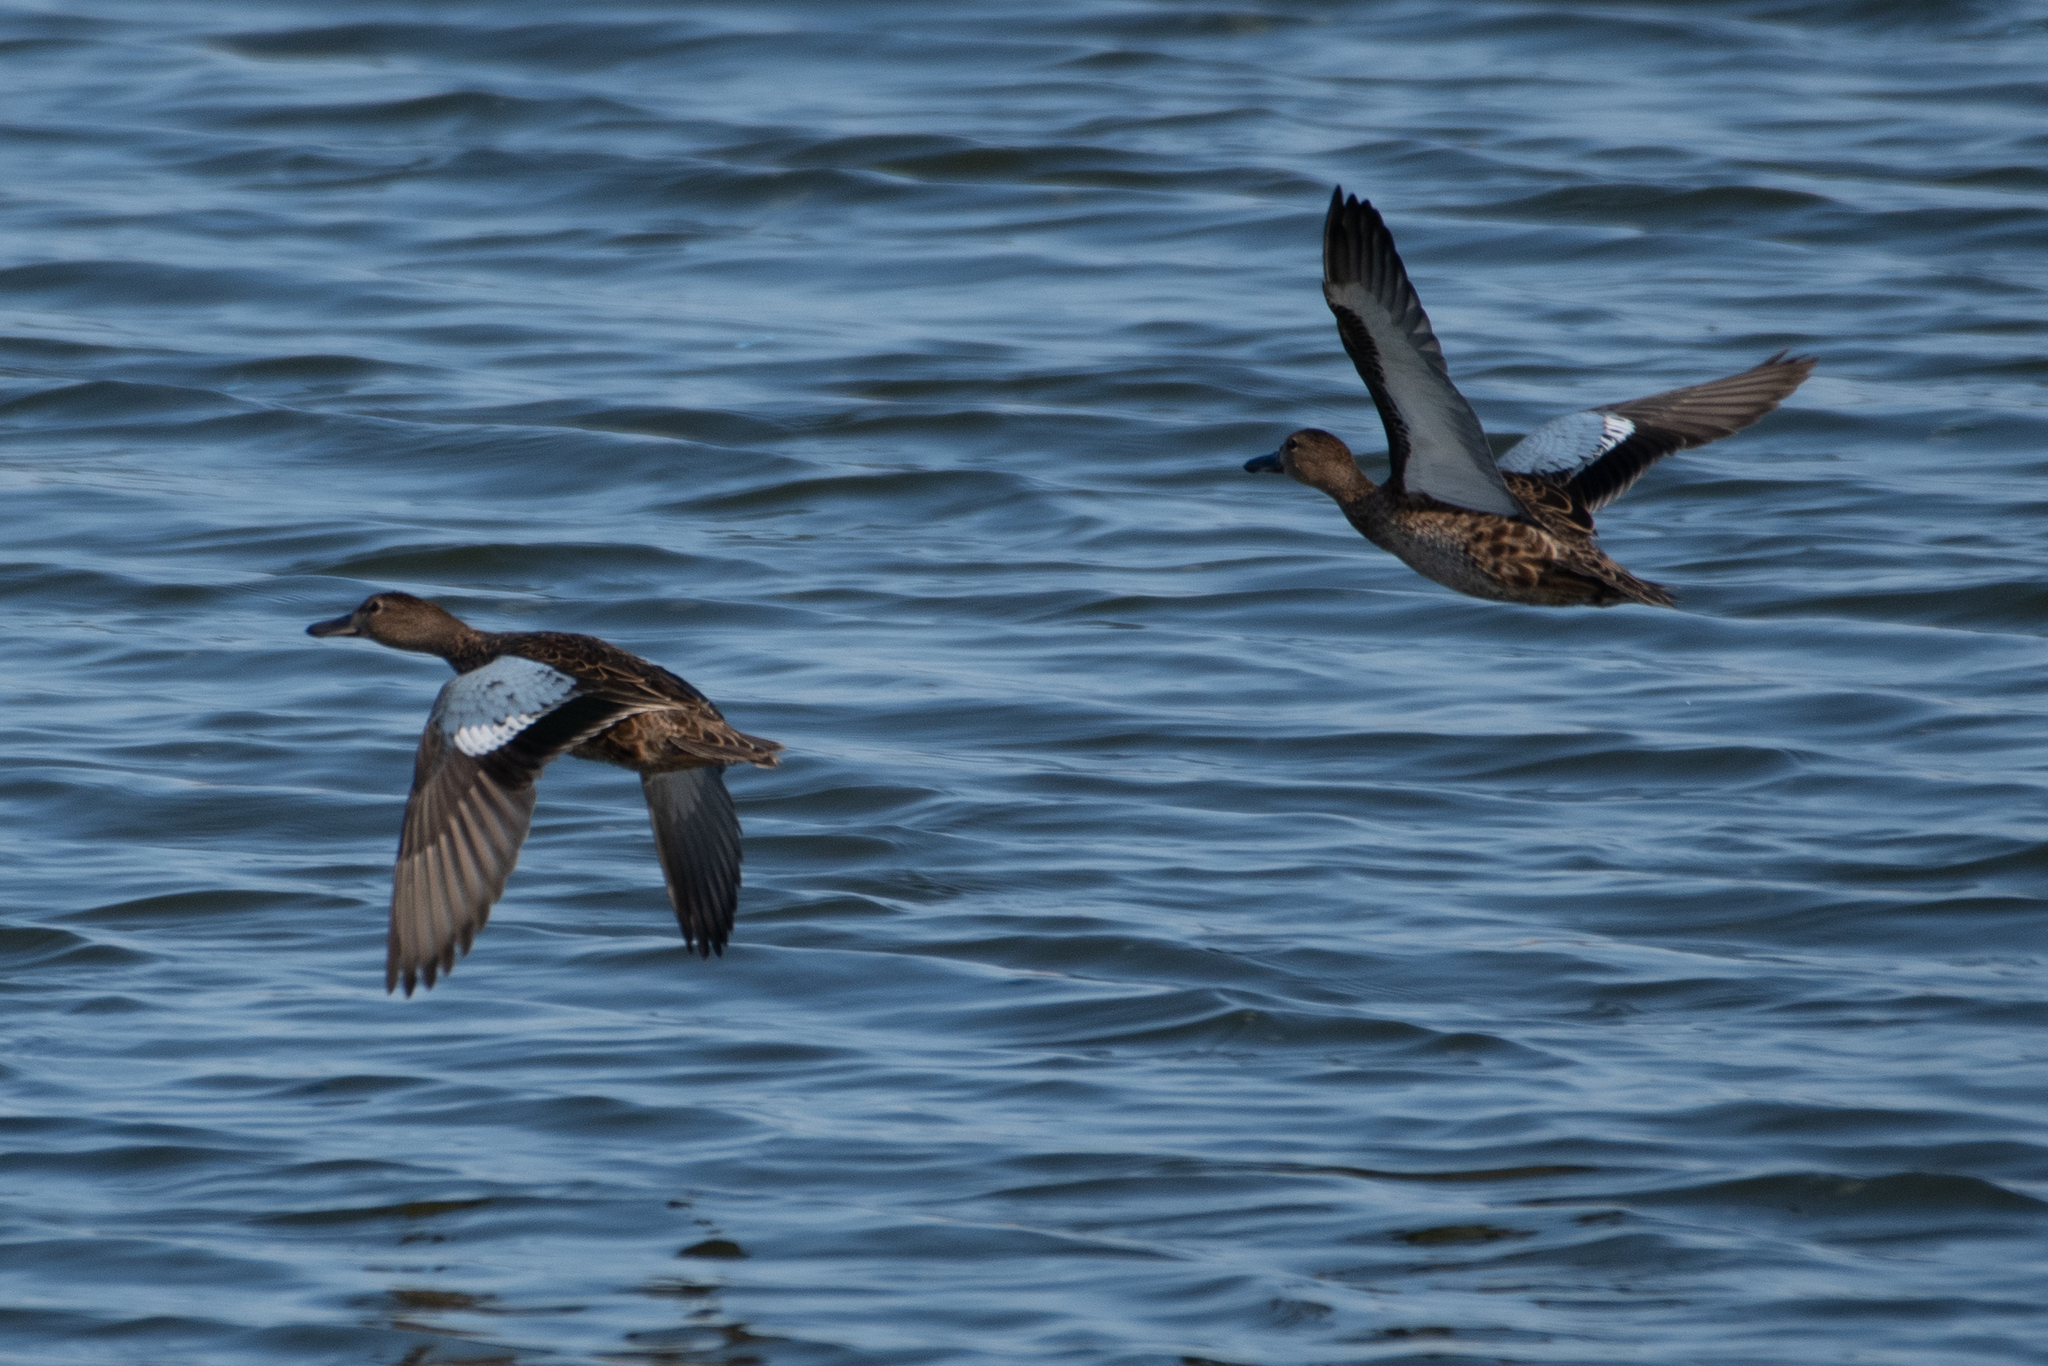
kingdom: Animalia
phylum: Chordata
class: Aves
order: Anseriformes
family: Anatidae
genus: Spatula
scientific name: Spatula cyanoptera
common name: Cinnamon teal
